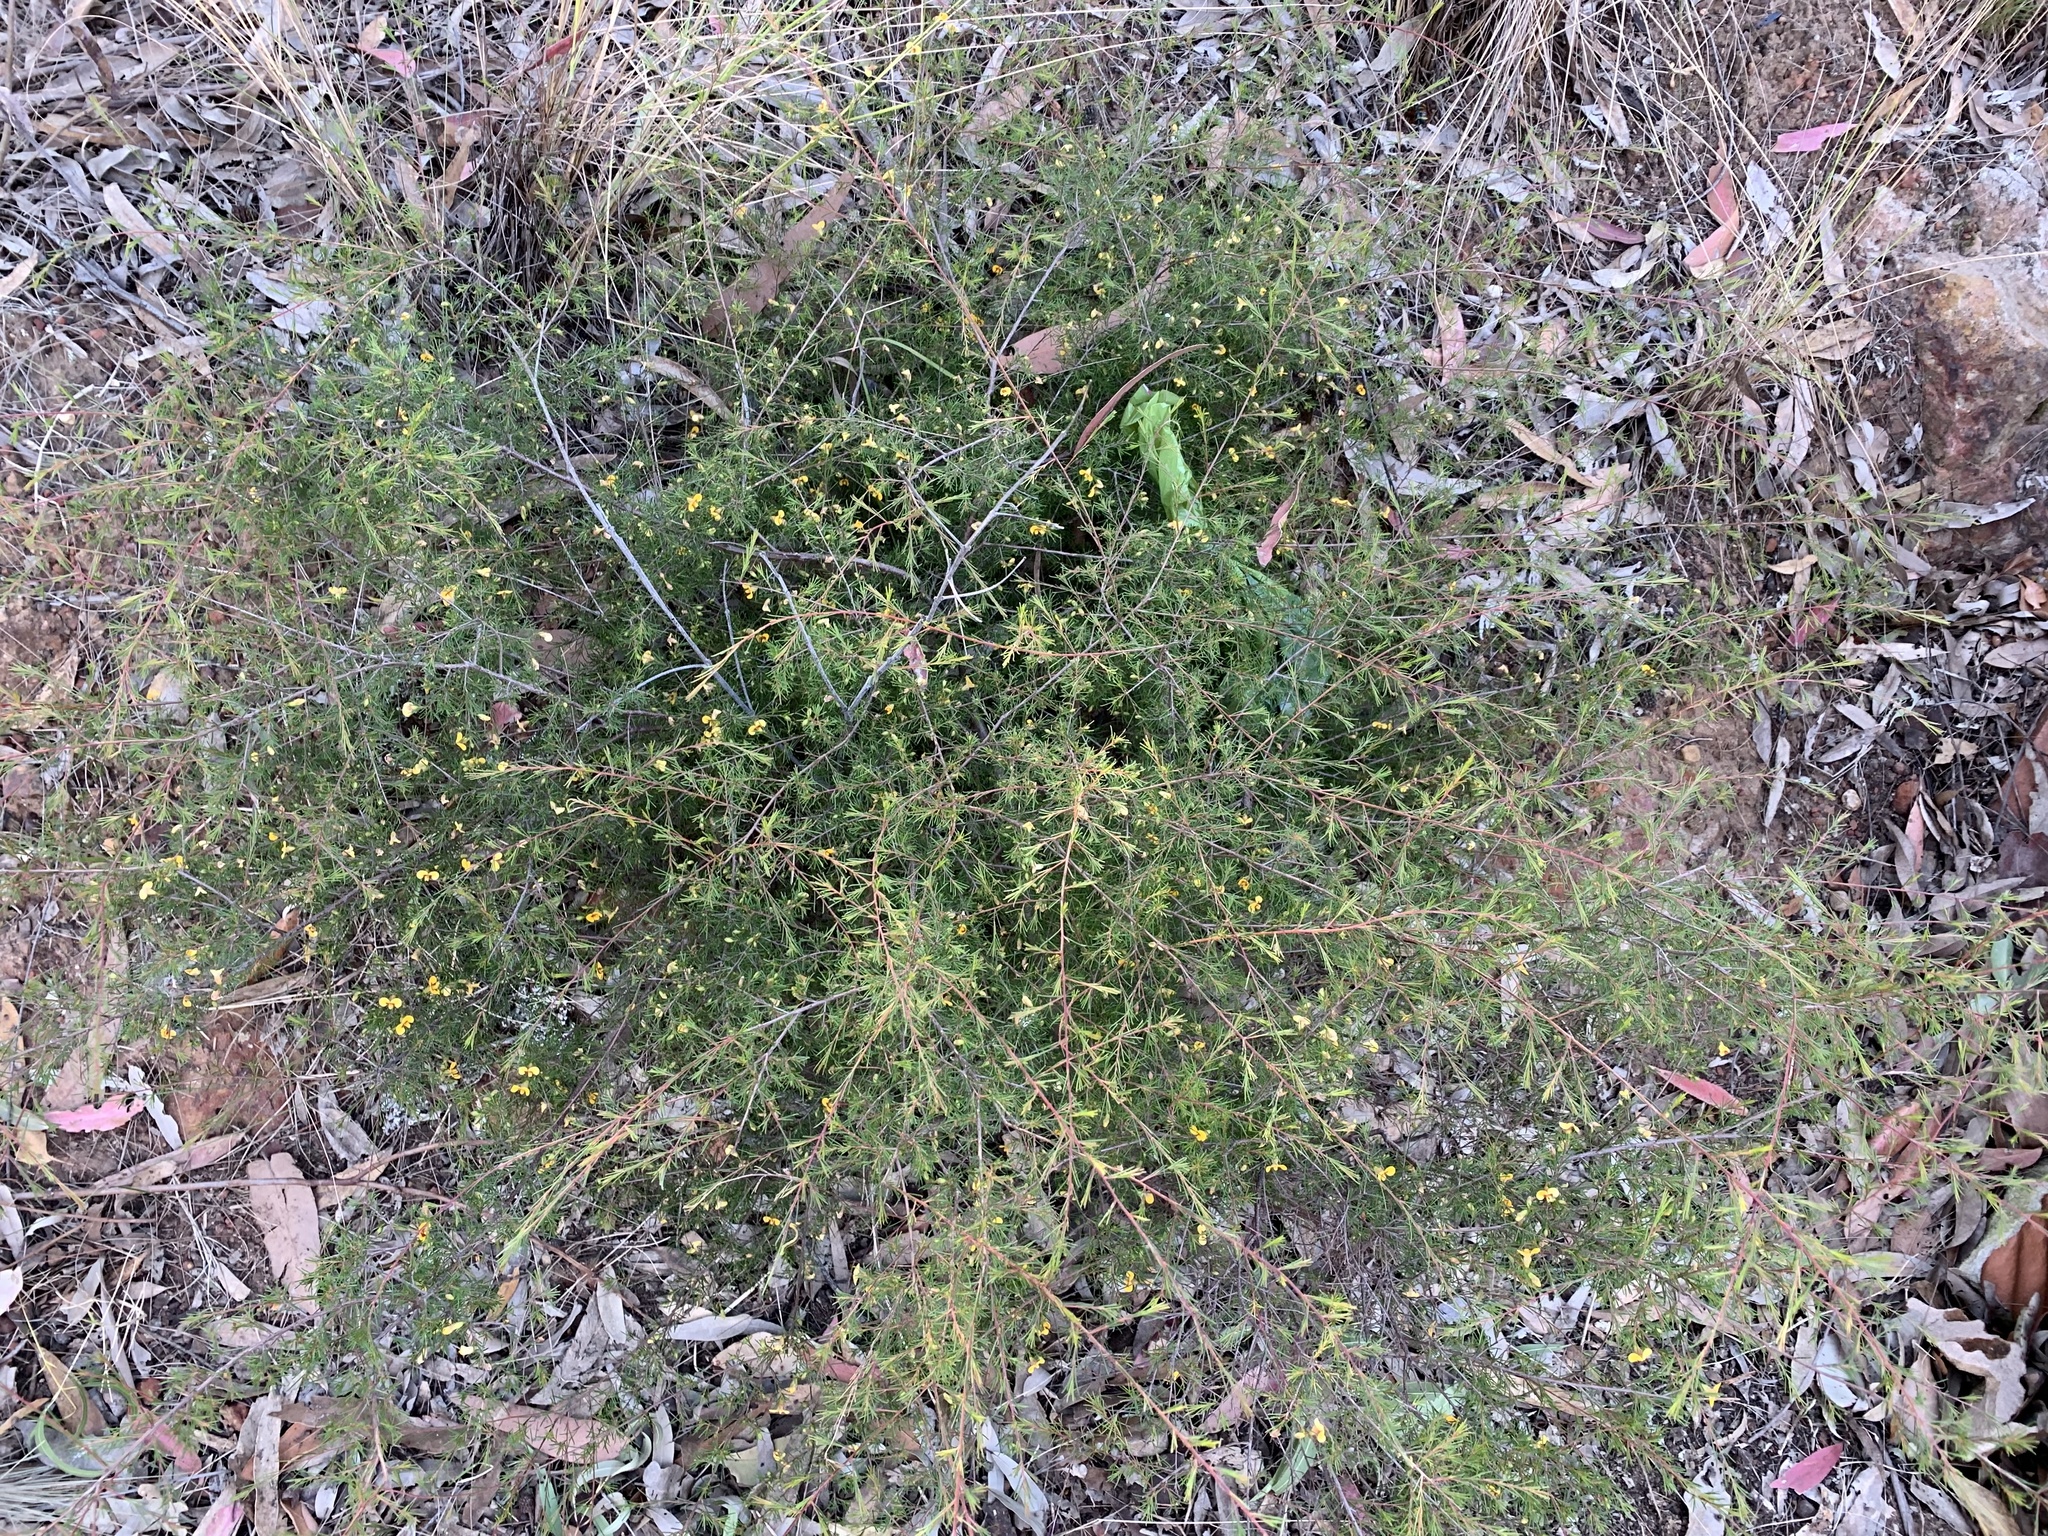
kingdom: Plantae
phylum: Tracheophyta
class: Magnoliopsida
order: Fabales
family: Fabaceae
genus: Dillwynia
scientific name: Dillwynia tenuifolia
